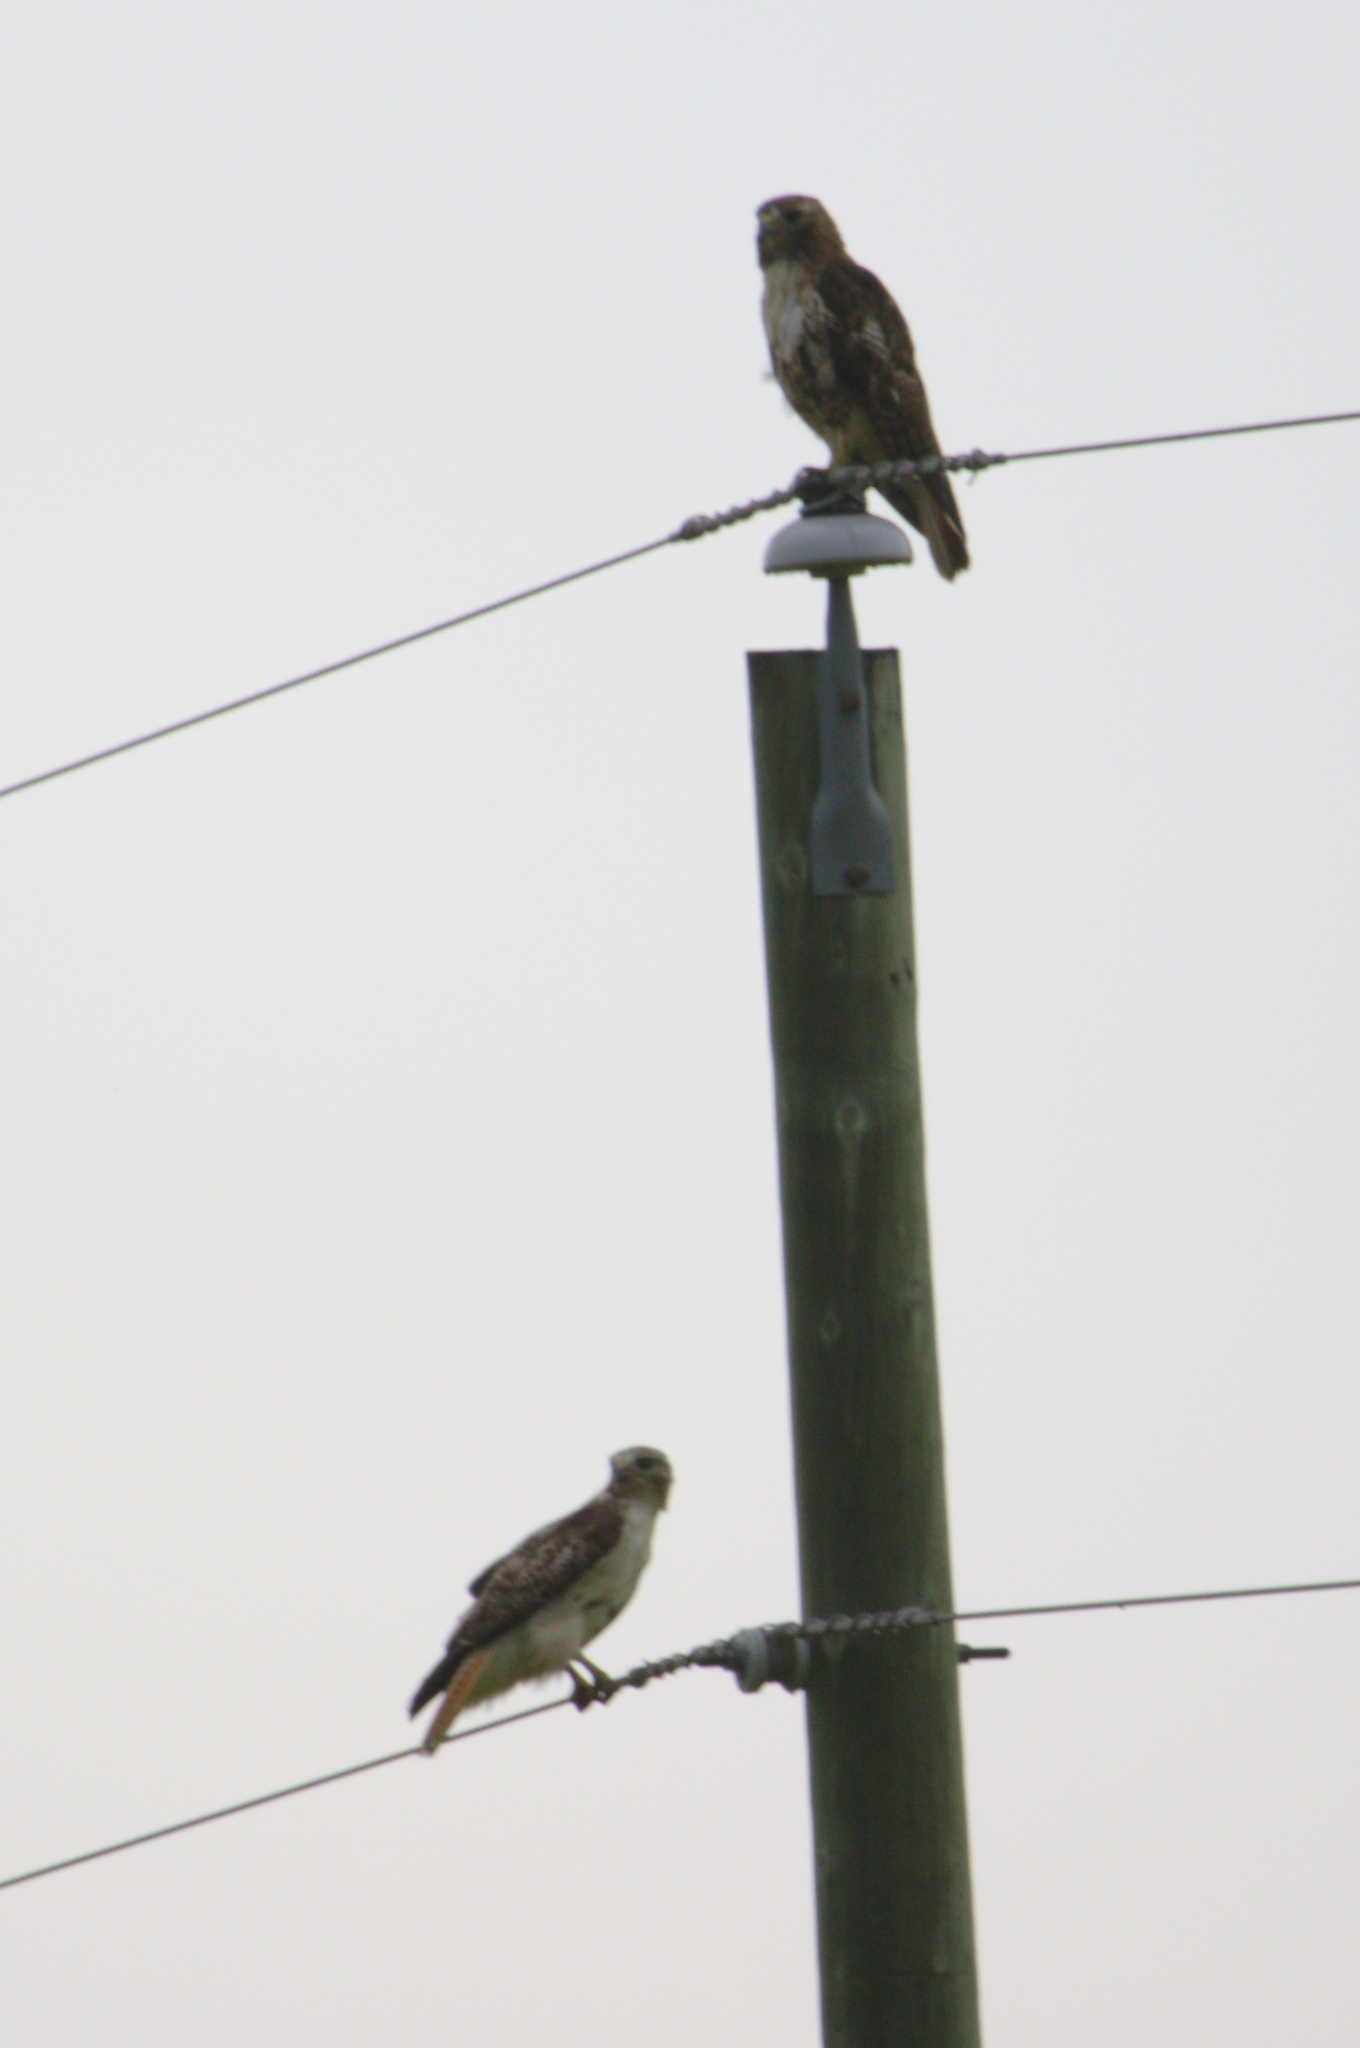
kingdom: Animalia
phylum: Chordata
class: Aves
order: Accipitriformes
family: Accipitridae
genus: Buteo
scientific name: Buteo jamaicensis
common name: Red-tailed hawk
